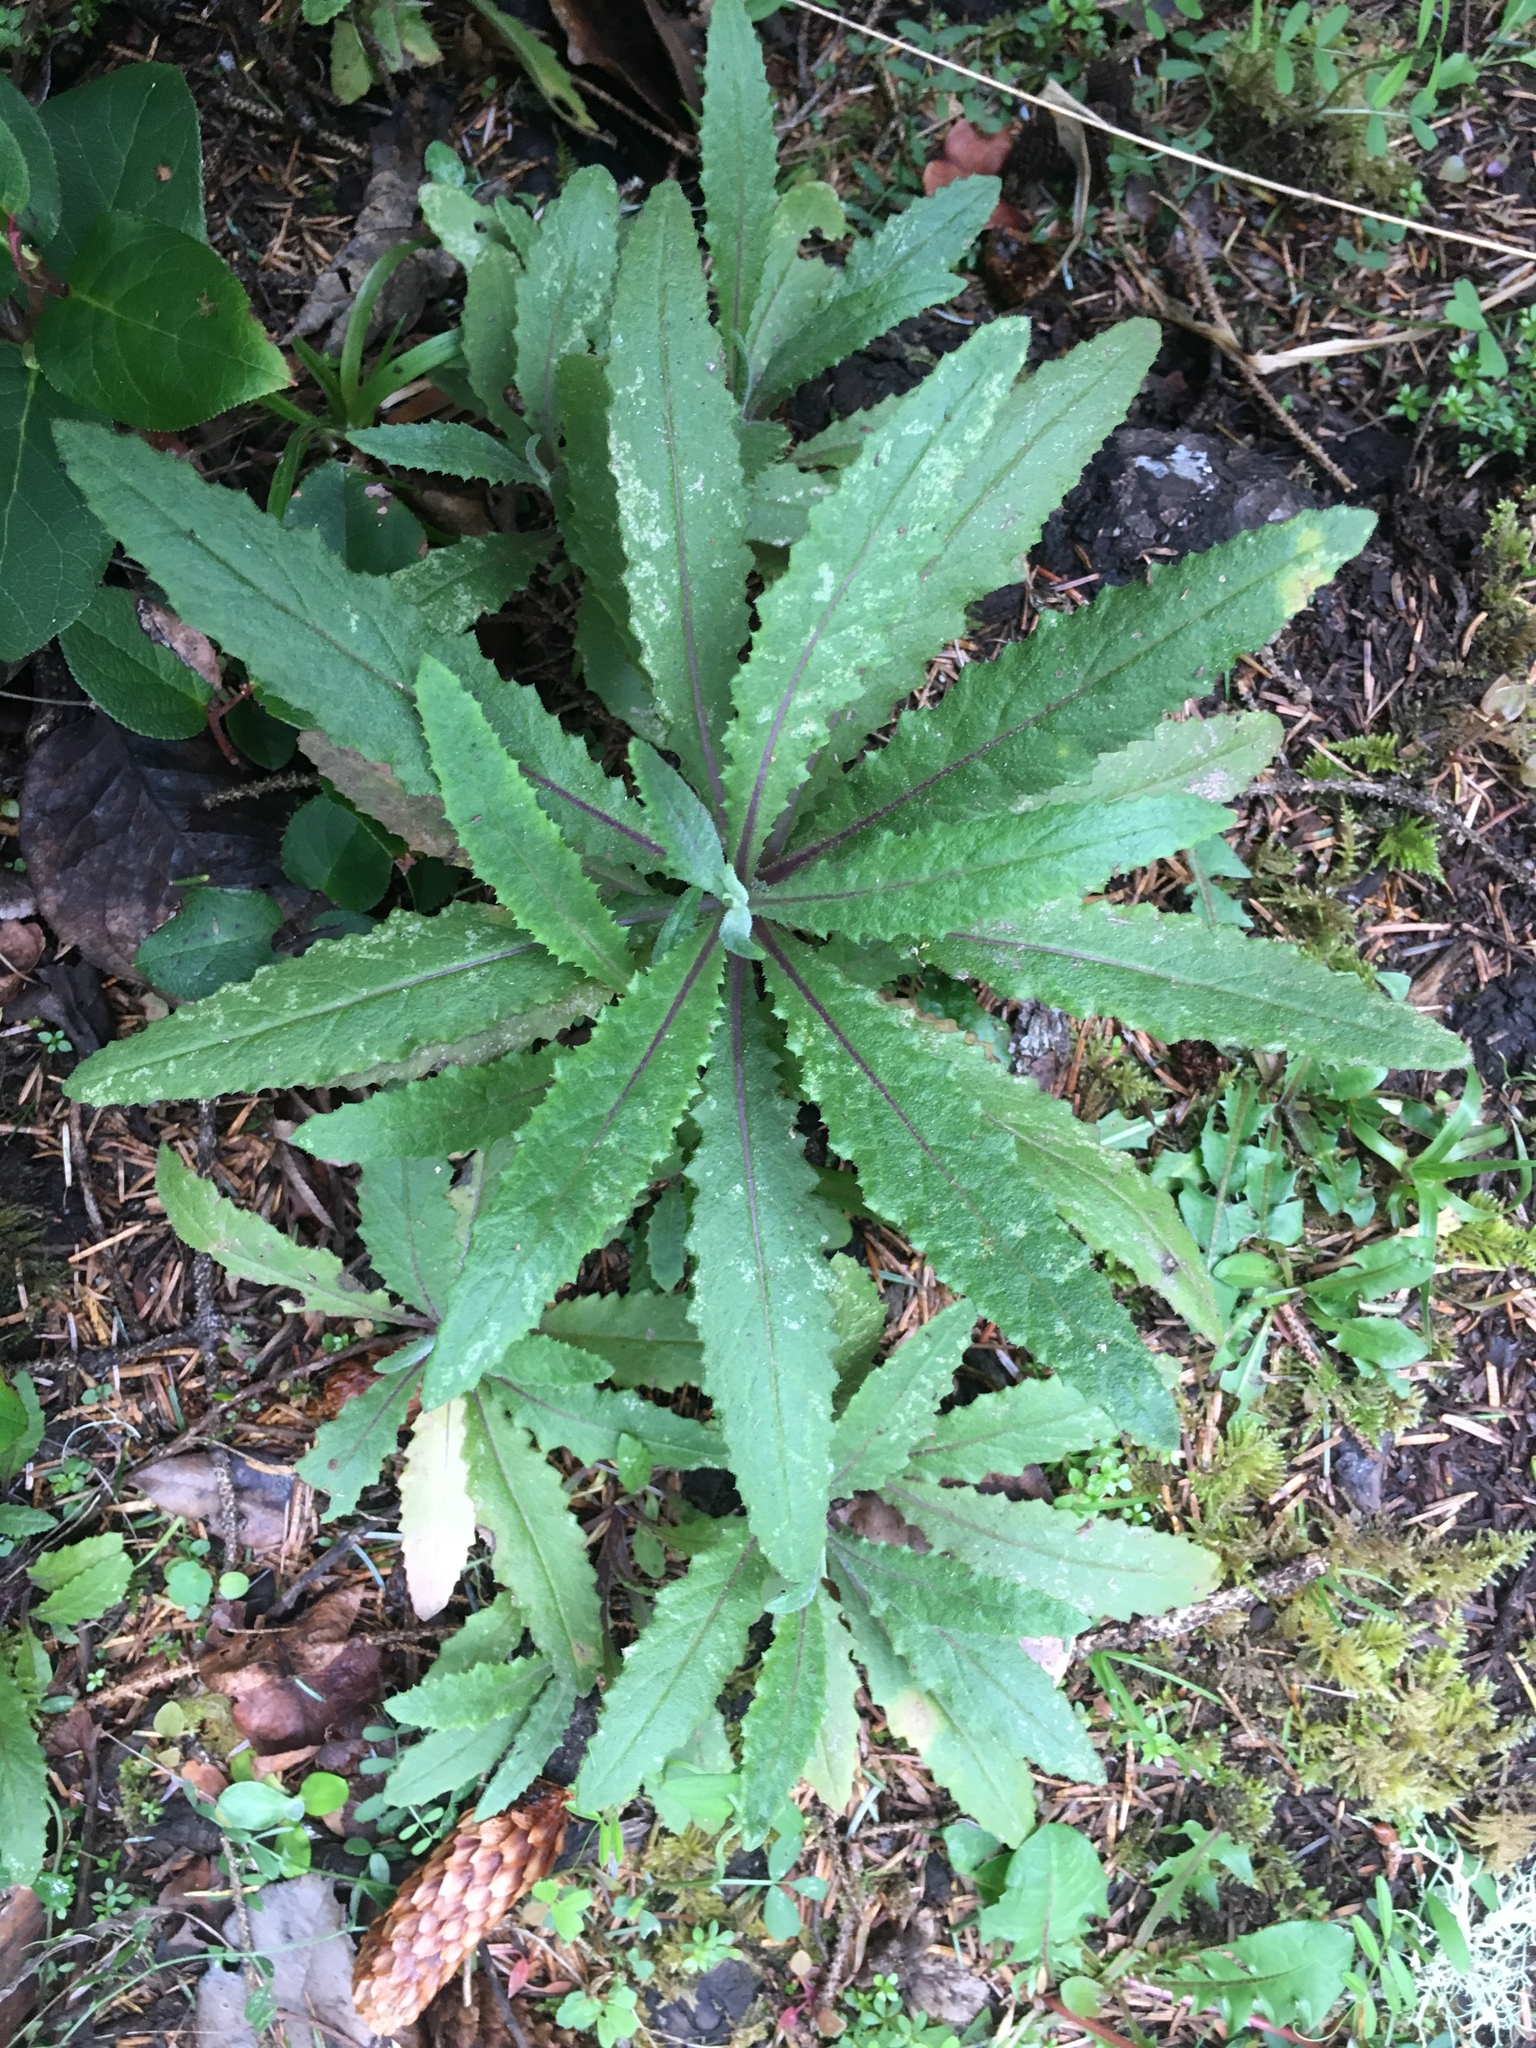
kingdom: Plantae
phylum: Tracheophyta
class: Magnoliopsida
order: Asterales
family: Asteraceae
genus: Senecio
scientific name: Senecio minimus
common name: Toothed fireweed
